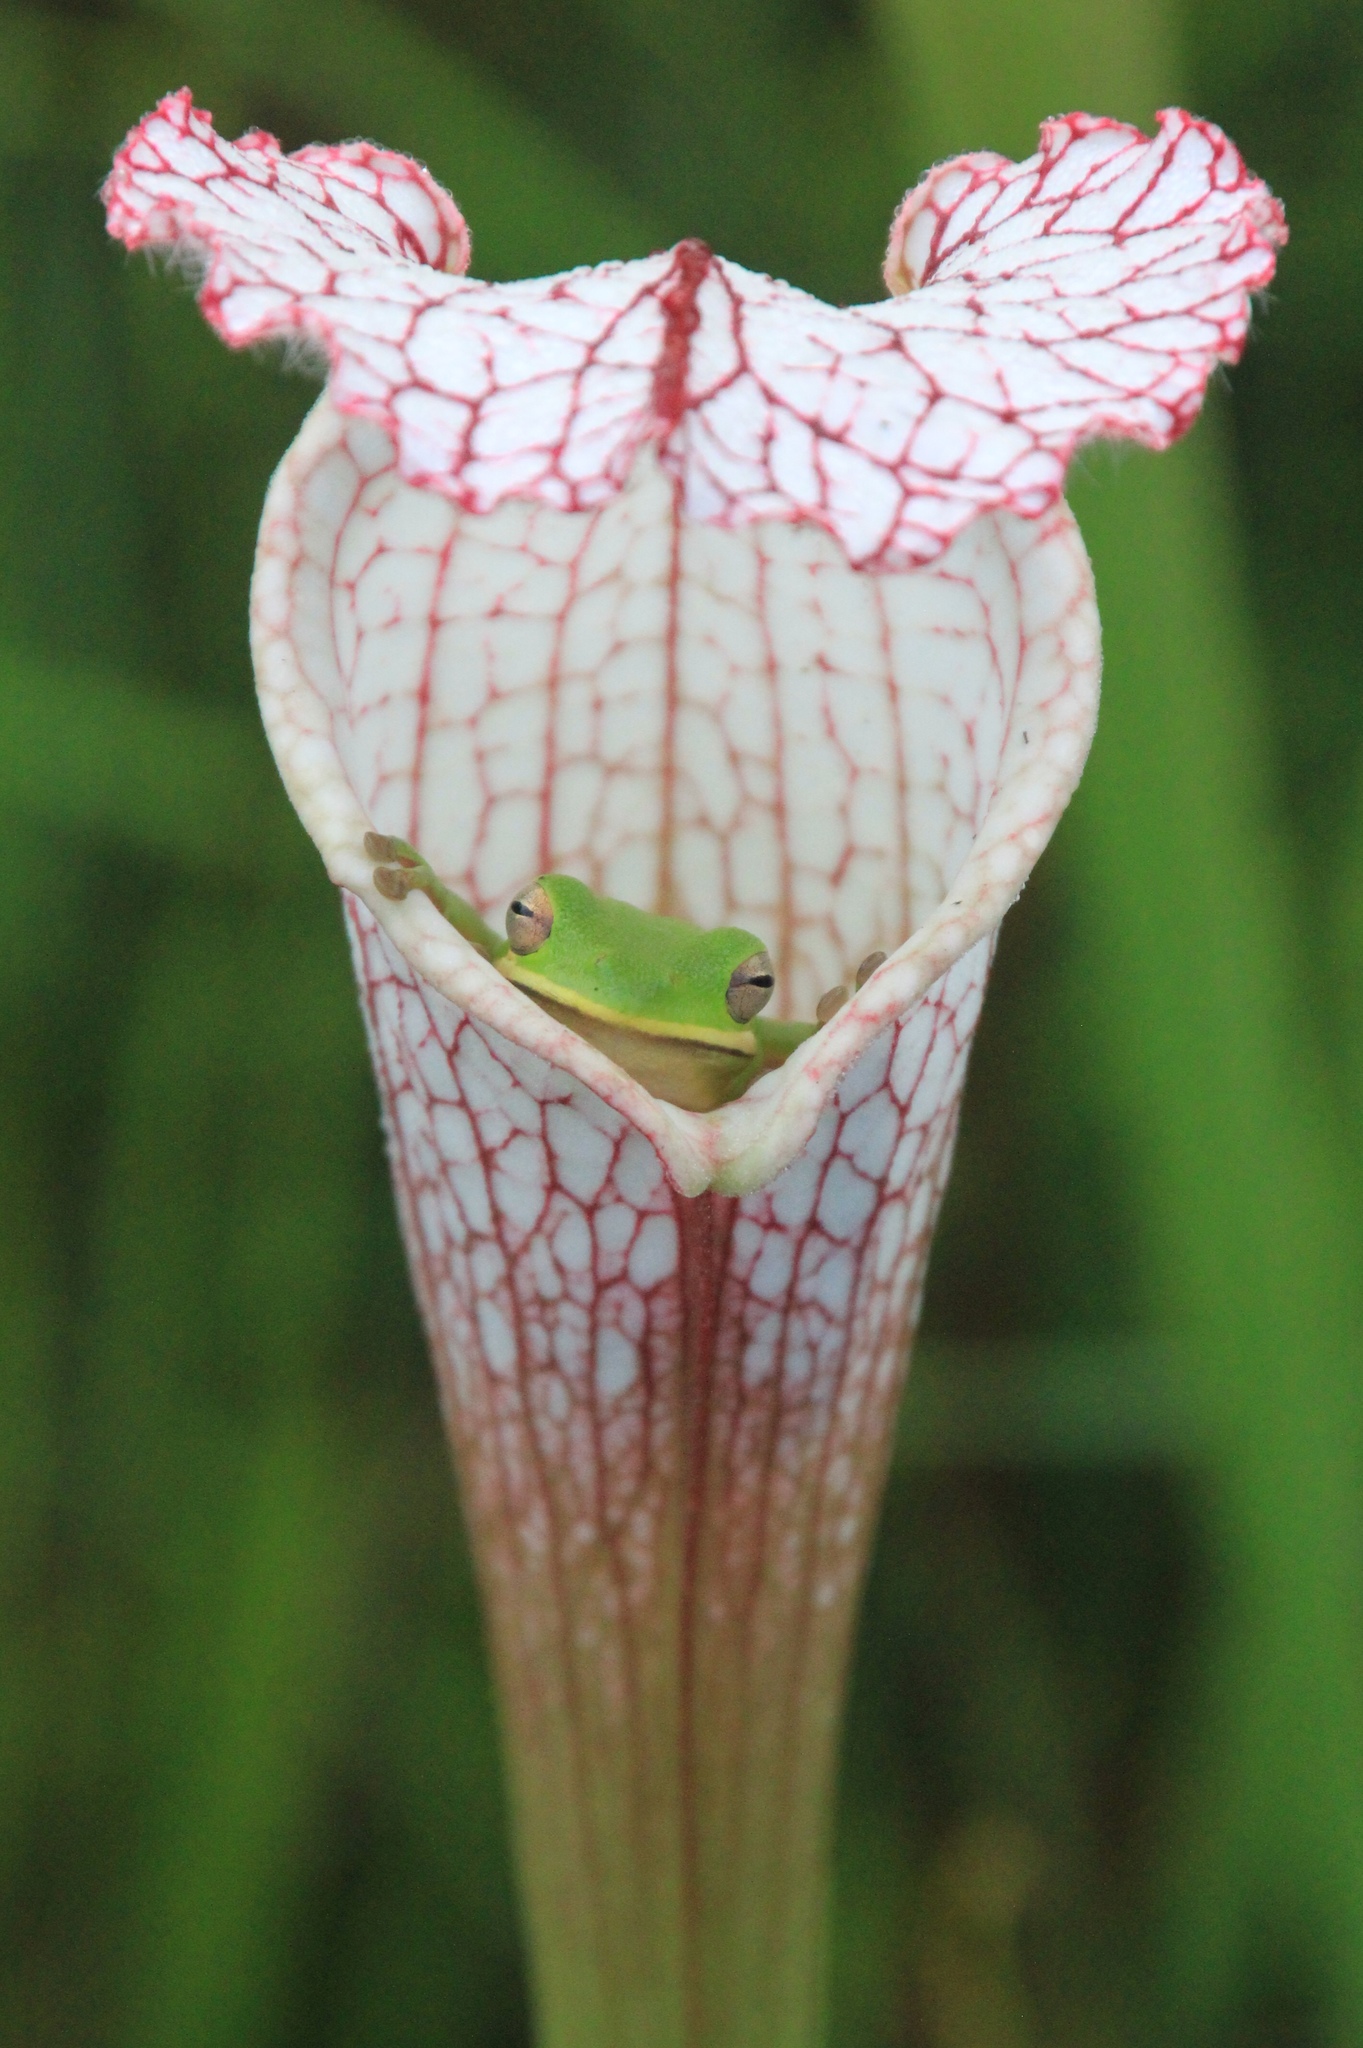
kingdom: Plantae
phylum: Tracheophyta
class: Magnoliopsida
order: Ericales
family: Sarraceniaceae
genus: Sarracenia
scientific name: Sarracenia leucophylla
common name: Purple trumpetleaf
